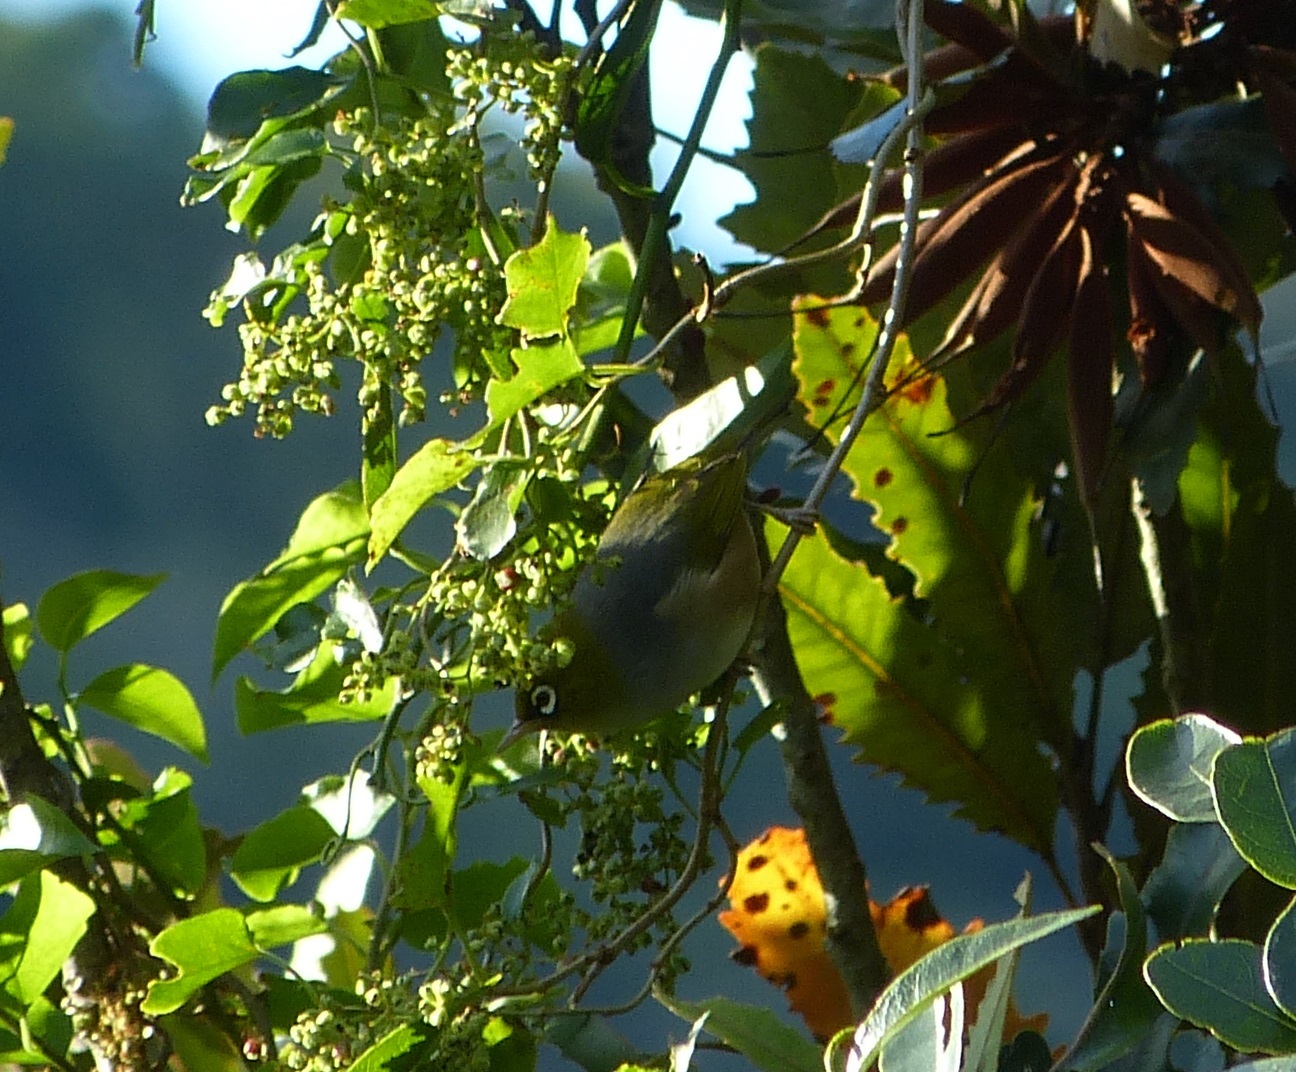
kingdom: Animalia
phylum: Chordata
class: Aves
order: Passeriformes
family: Zosteropidae
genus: Zosterops
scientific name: Zosterops lateralis
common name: Silvereye
